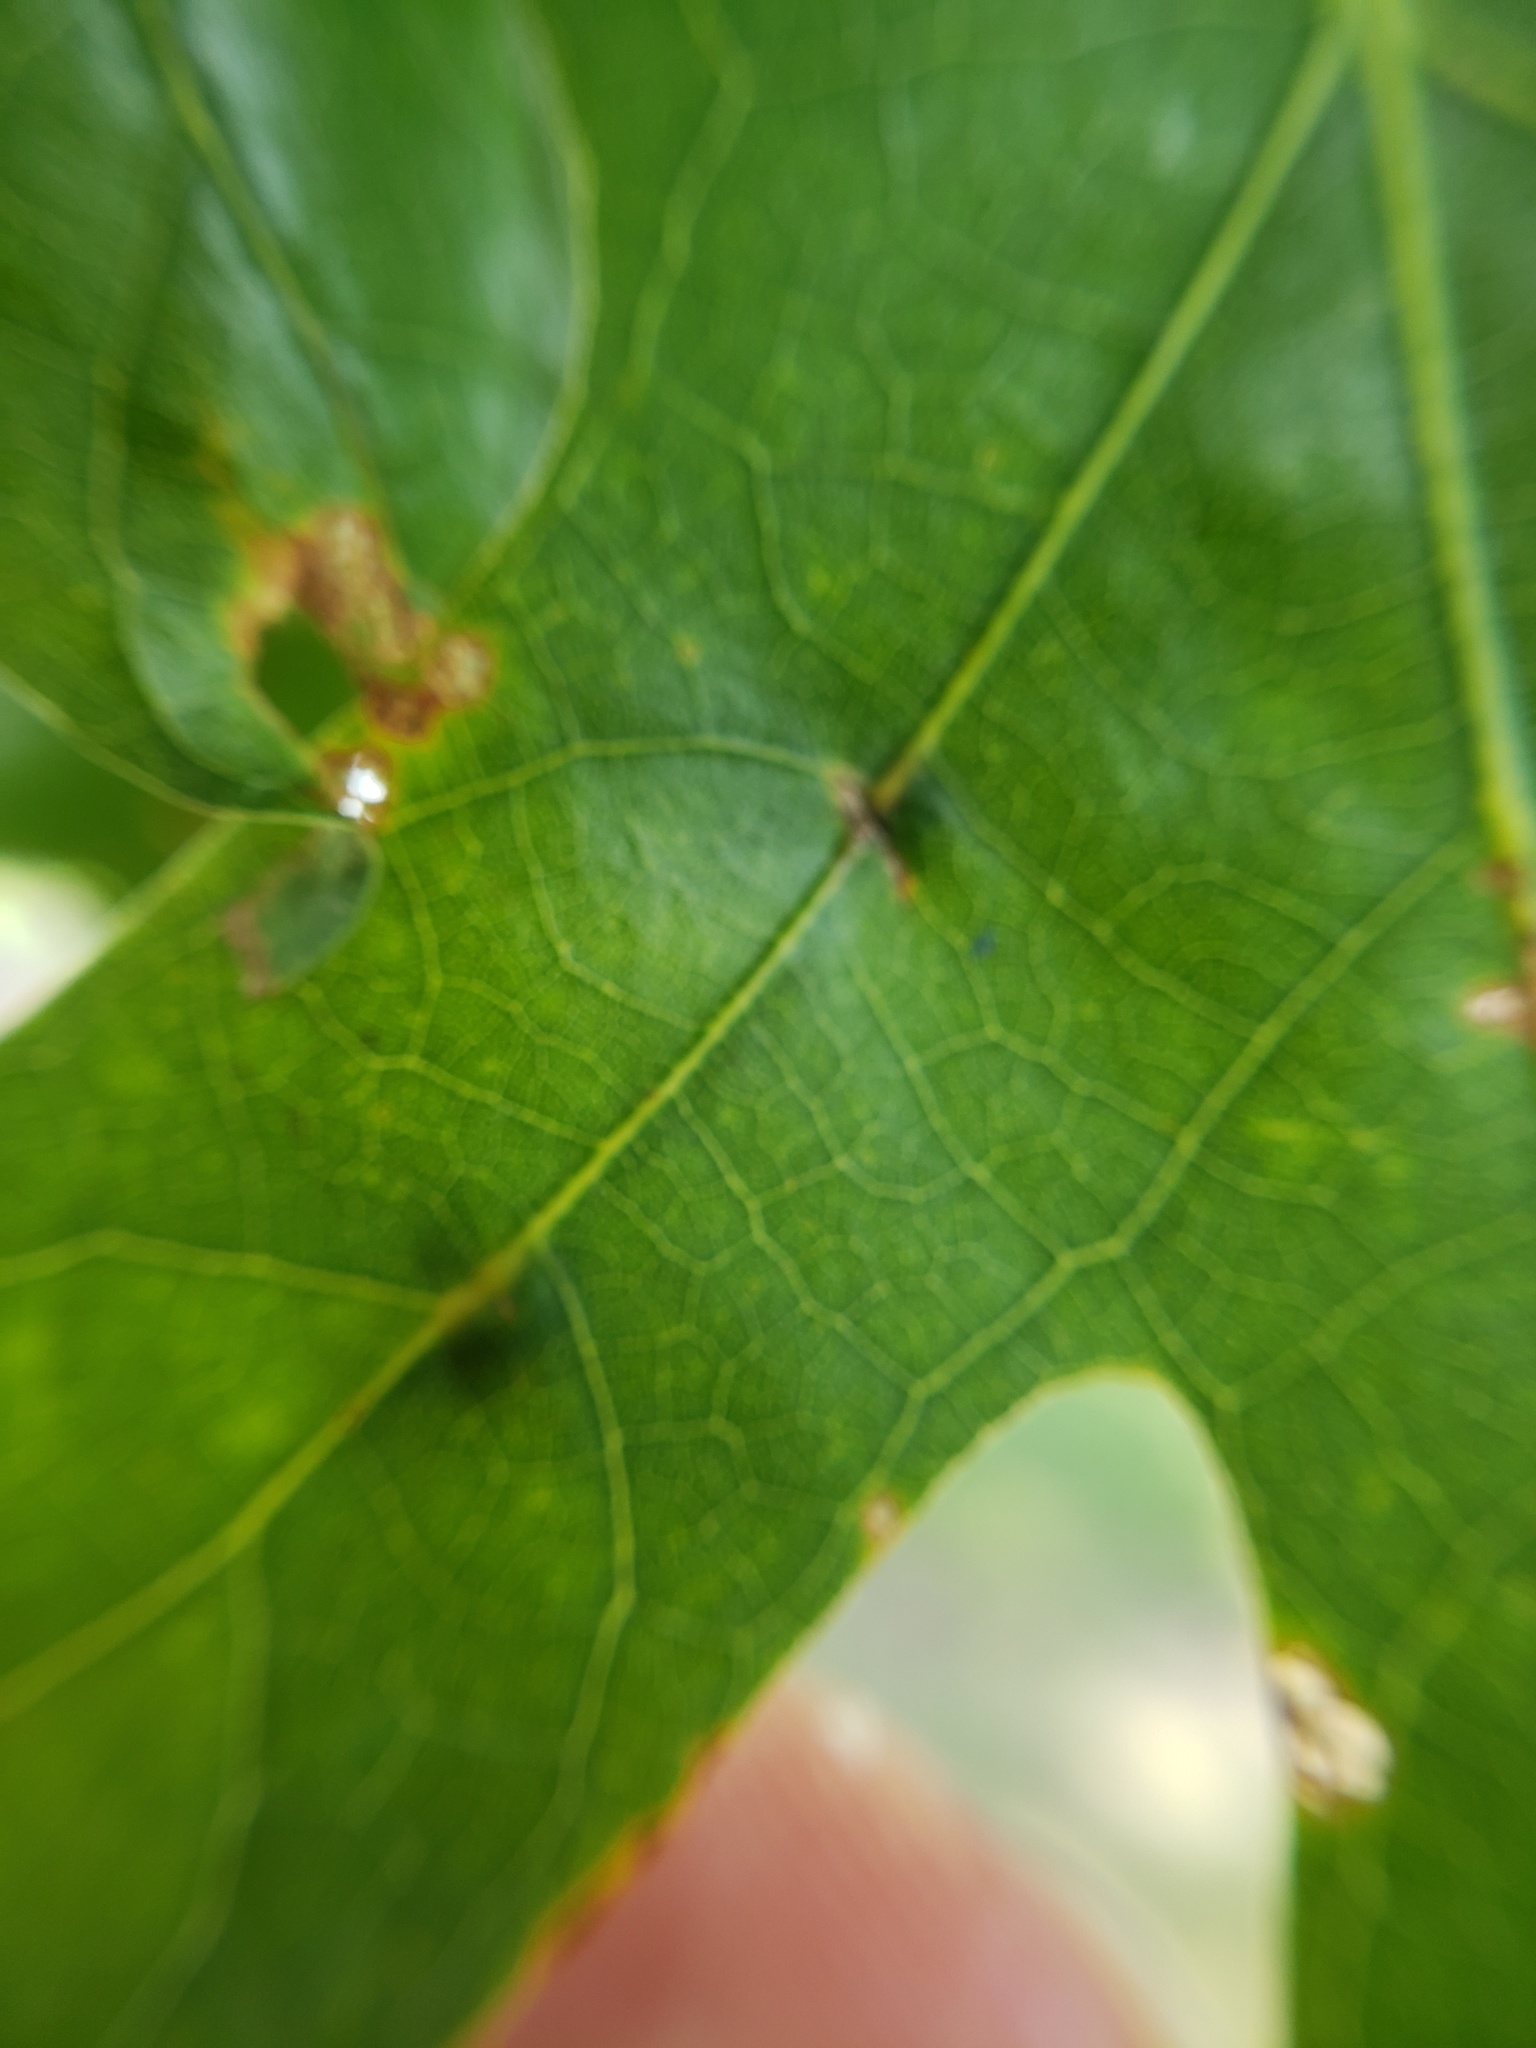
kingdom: Animalia
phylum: Arthropoda
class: Insecta
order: Hymenoptera
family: Cynipidae
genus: Acraspis
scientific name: Acraspis
